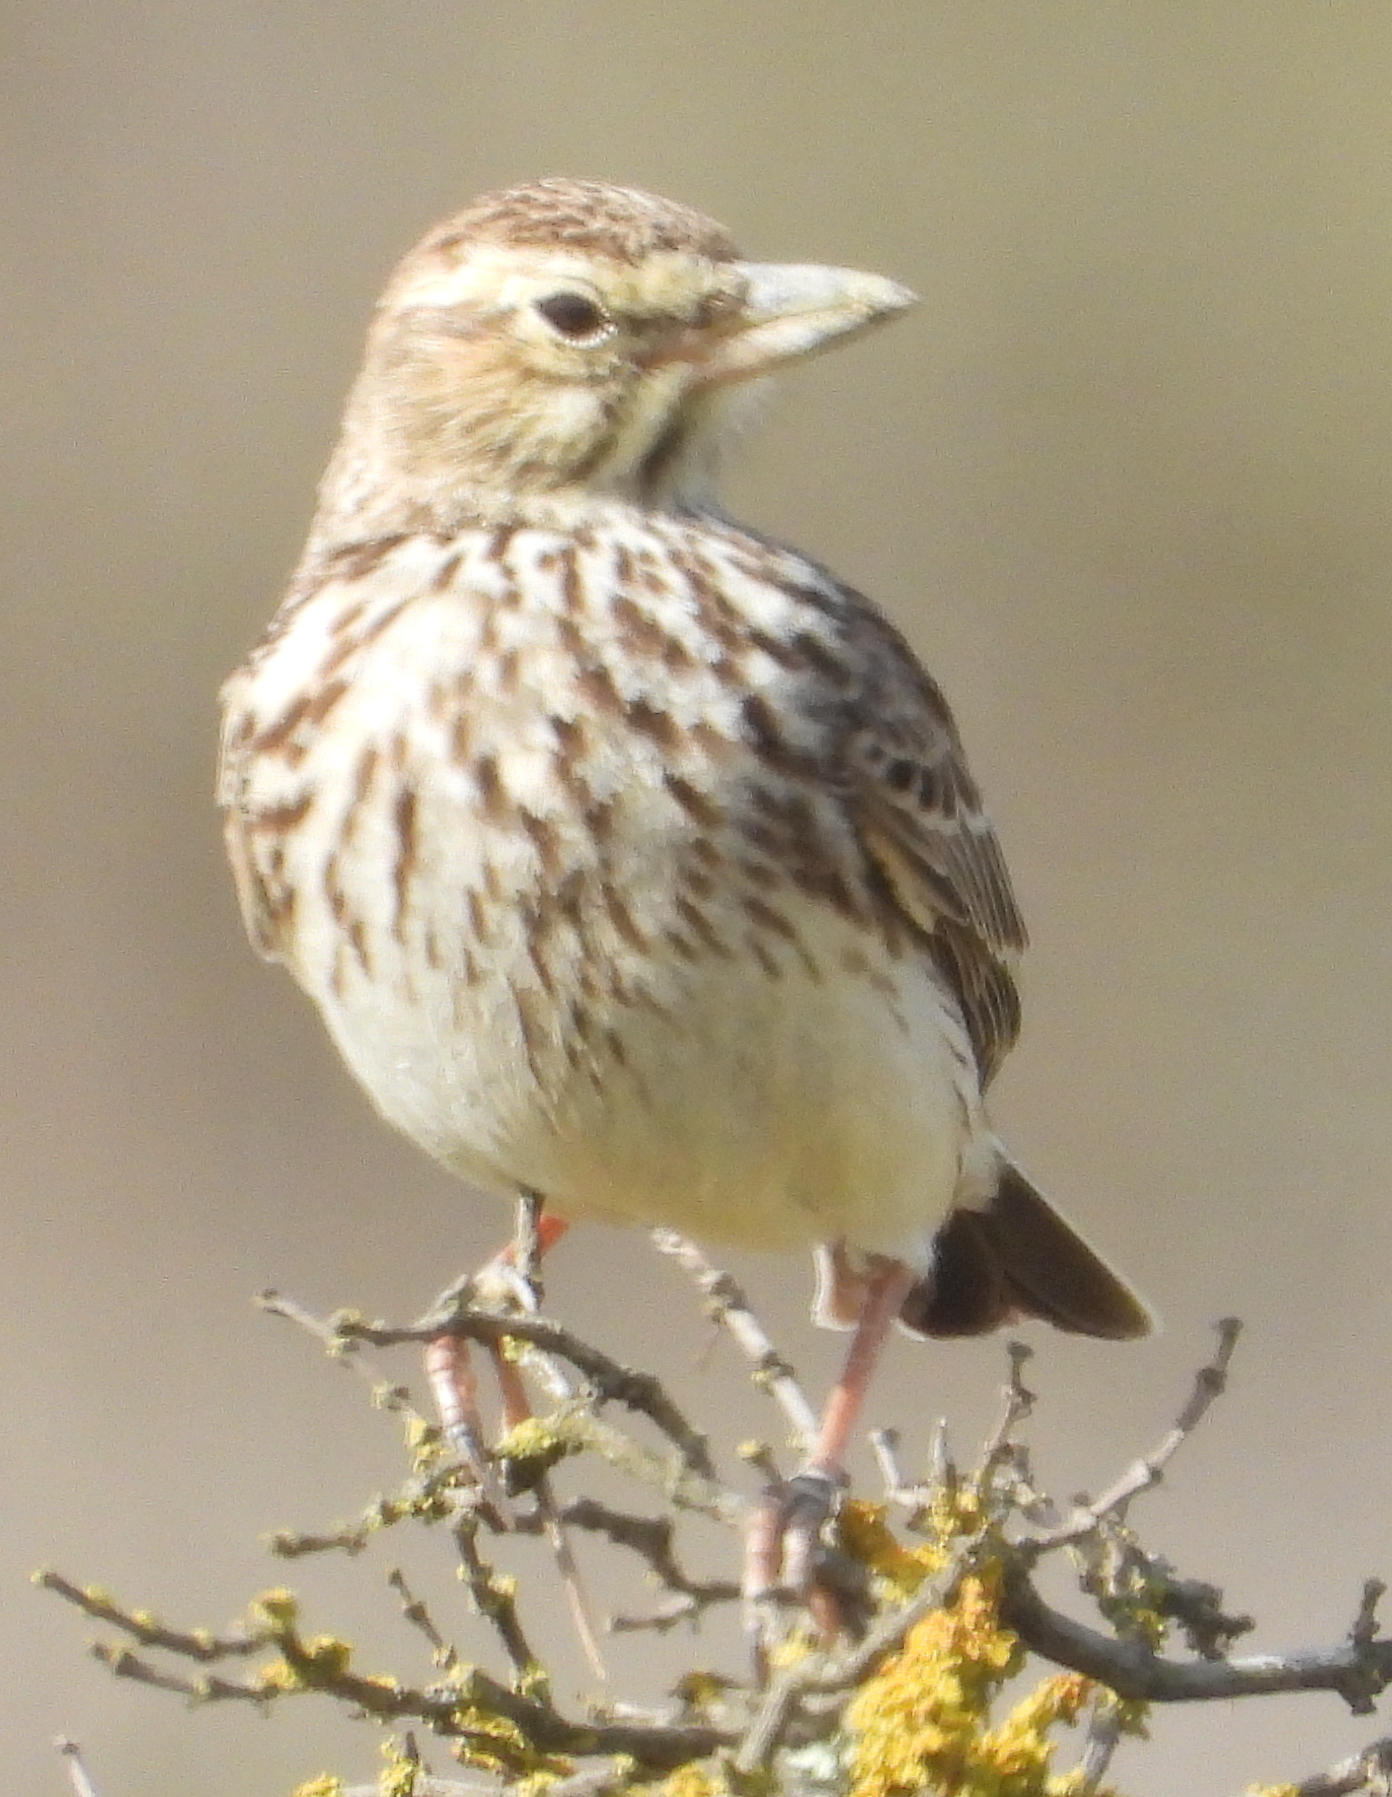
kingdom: Animalia
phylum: Chordata
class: Aves
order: Passeriformes
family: Alaudidae
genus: Galerida
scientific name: Galerida magnirostris
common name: Large-billed lark
